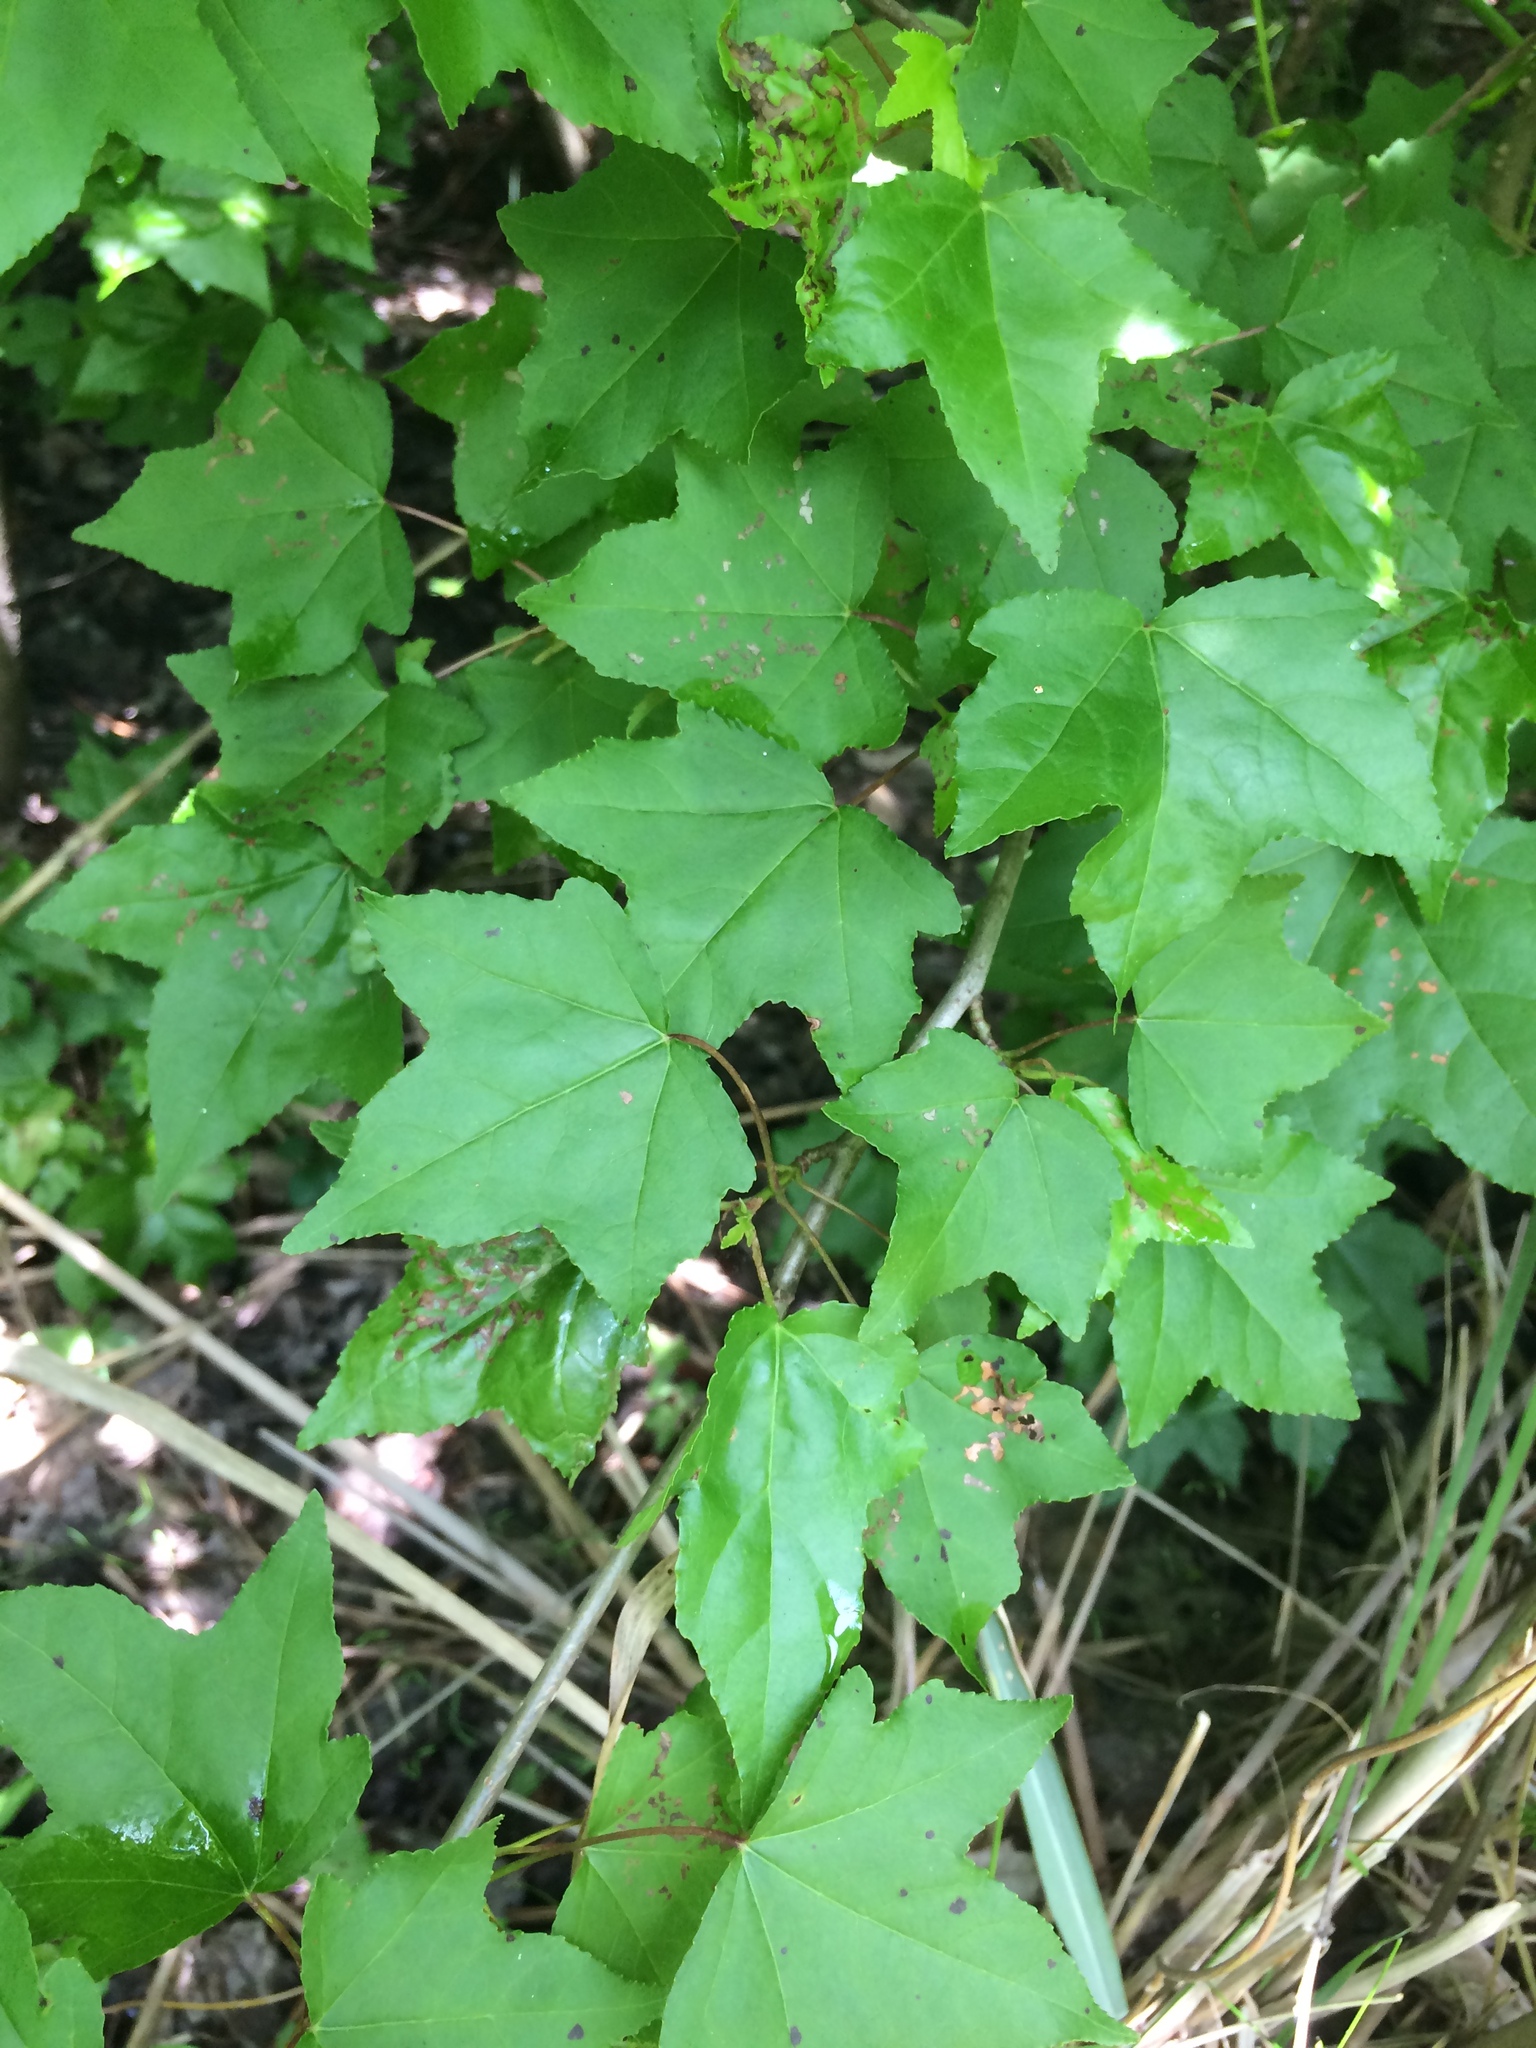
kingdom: Plantae
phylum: Tracheophyta
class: Magnoliopsida
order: Saxifragales
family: Altingiaceae
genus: Liquidambar
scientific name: Liquidambar styraciflua
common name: Sweet gum
